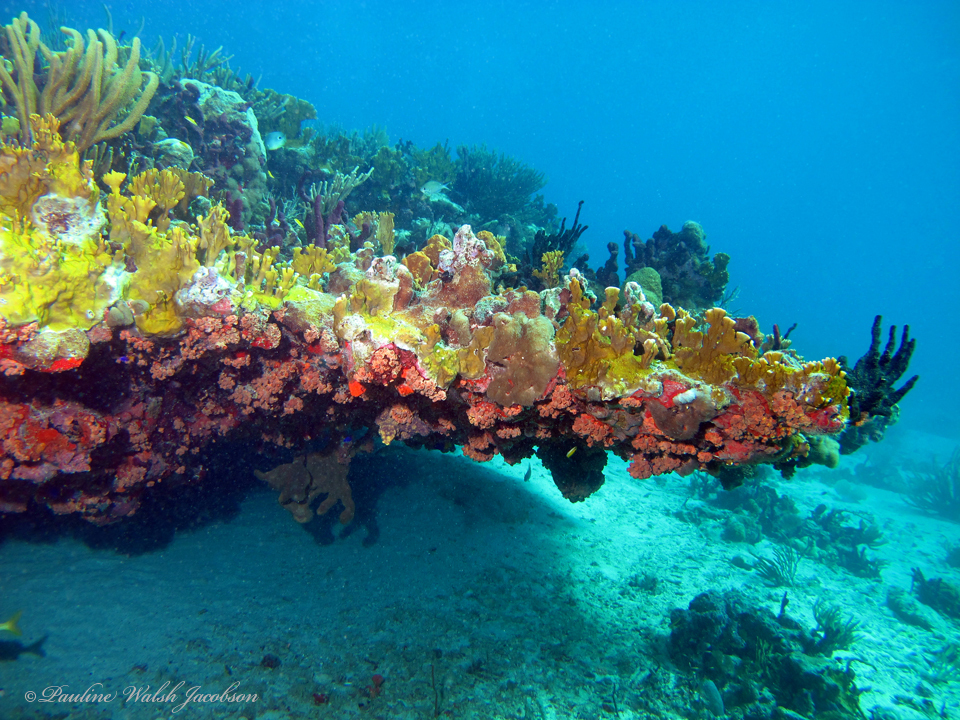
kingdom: Animalia
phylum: Cnidaria
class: Hydrozoa
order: Anthoathecata
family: Milleporidae
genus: Millepora
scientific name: Millepora complanata
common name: Bladed fire coral
